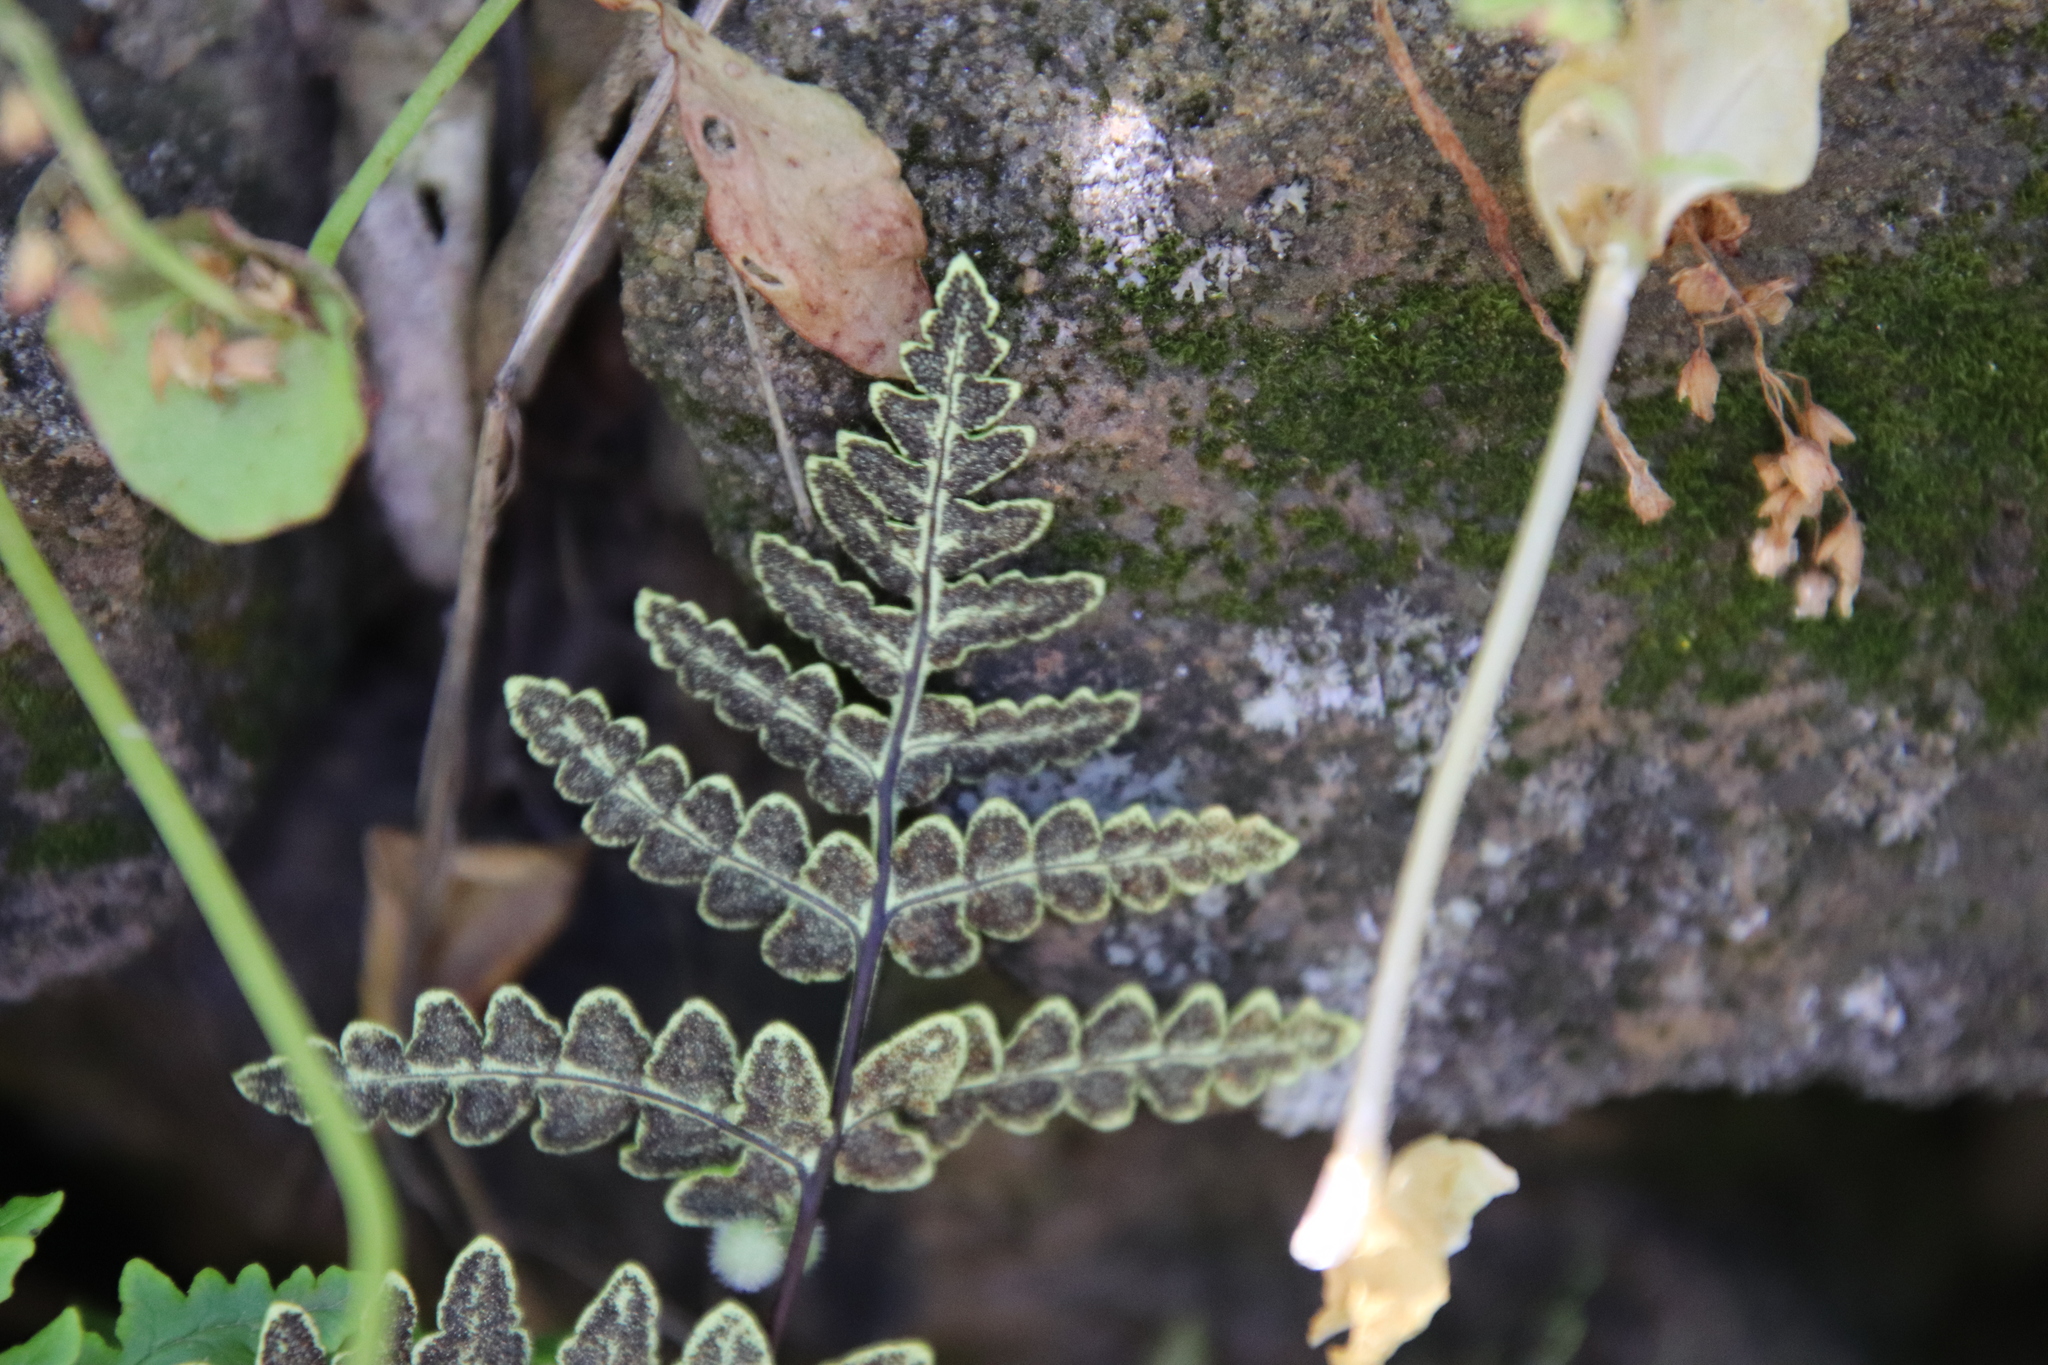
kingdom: Plantae
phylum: Tracheophyta
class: Polypodiopsida
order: Polypodiales
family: Pteridaceae
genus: Pentagramma
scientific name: Pentagramma triangularis
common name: Gold fern
